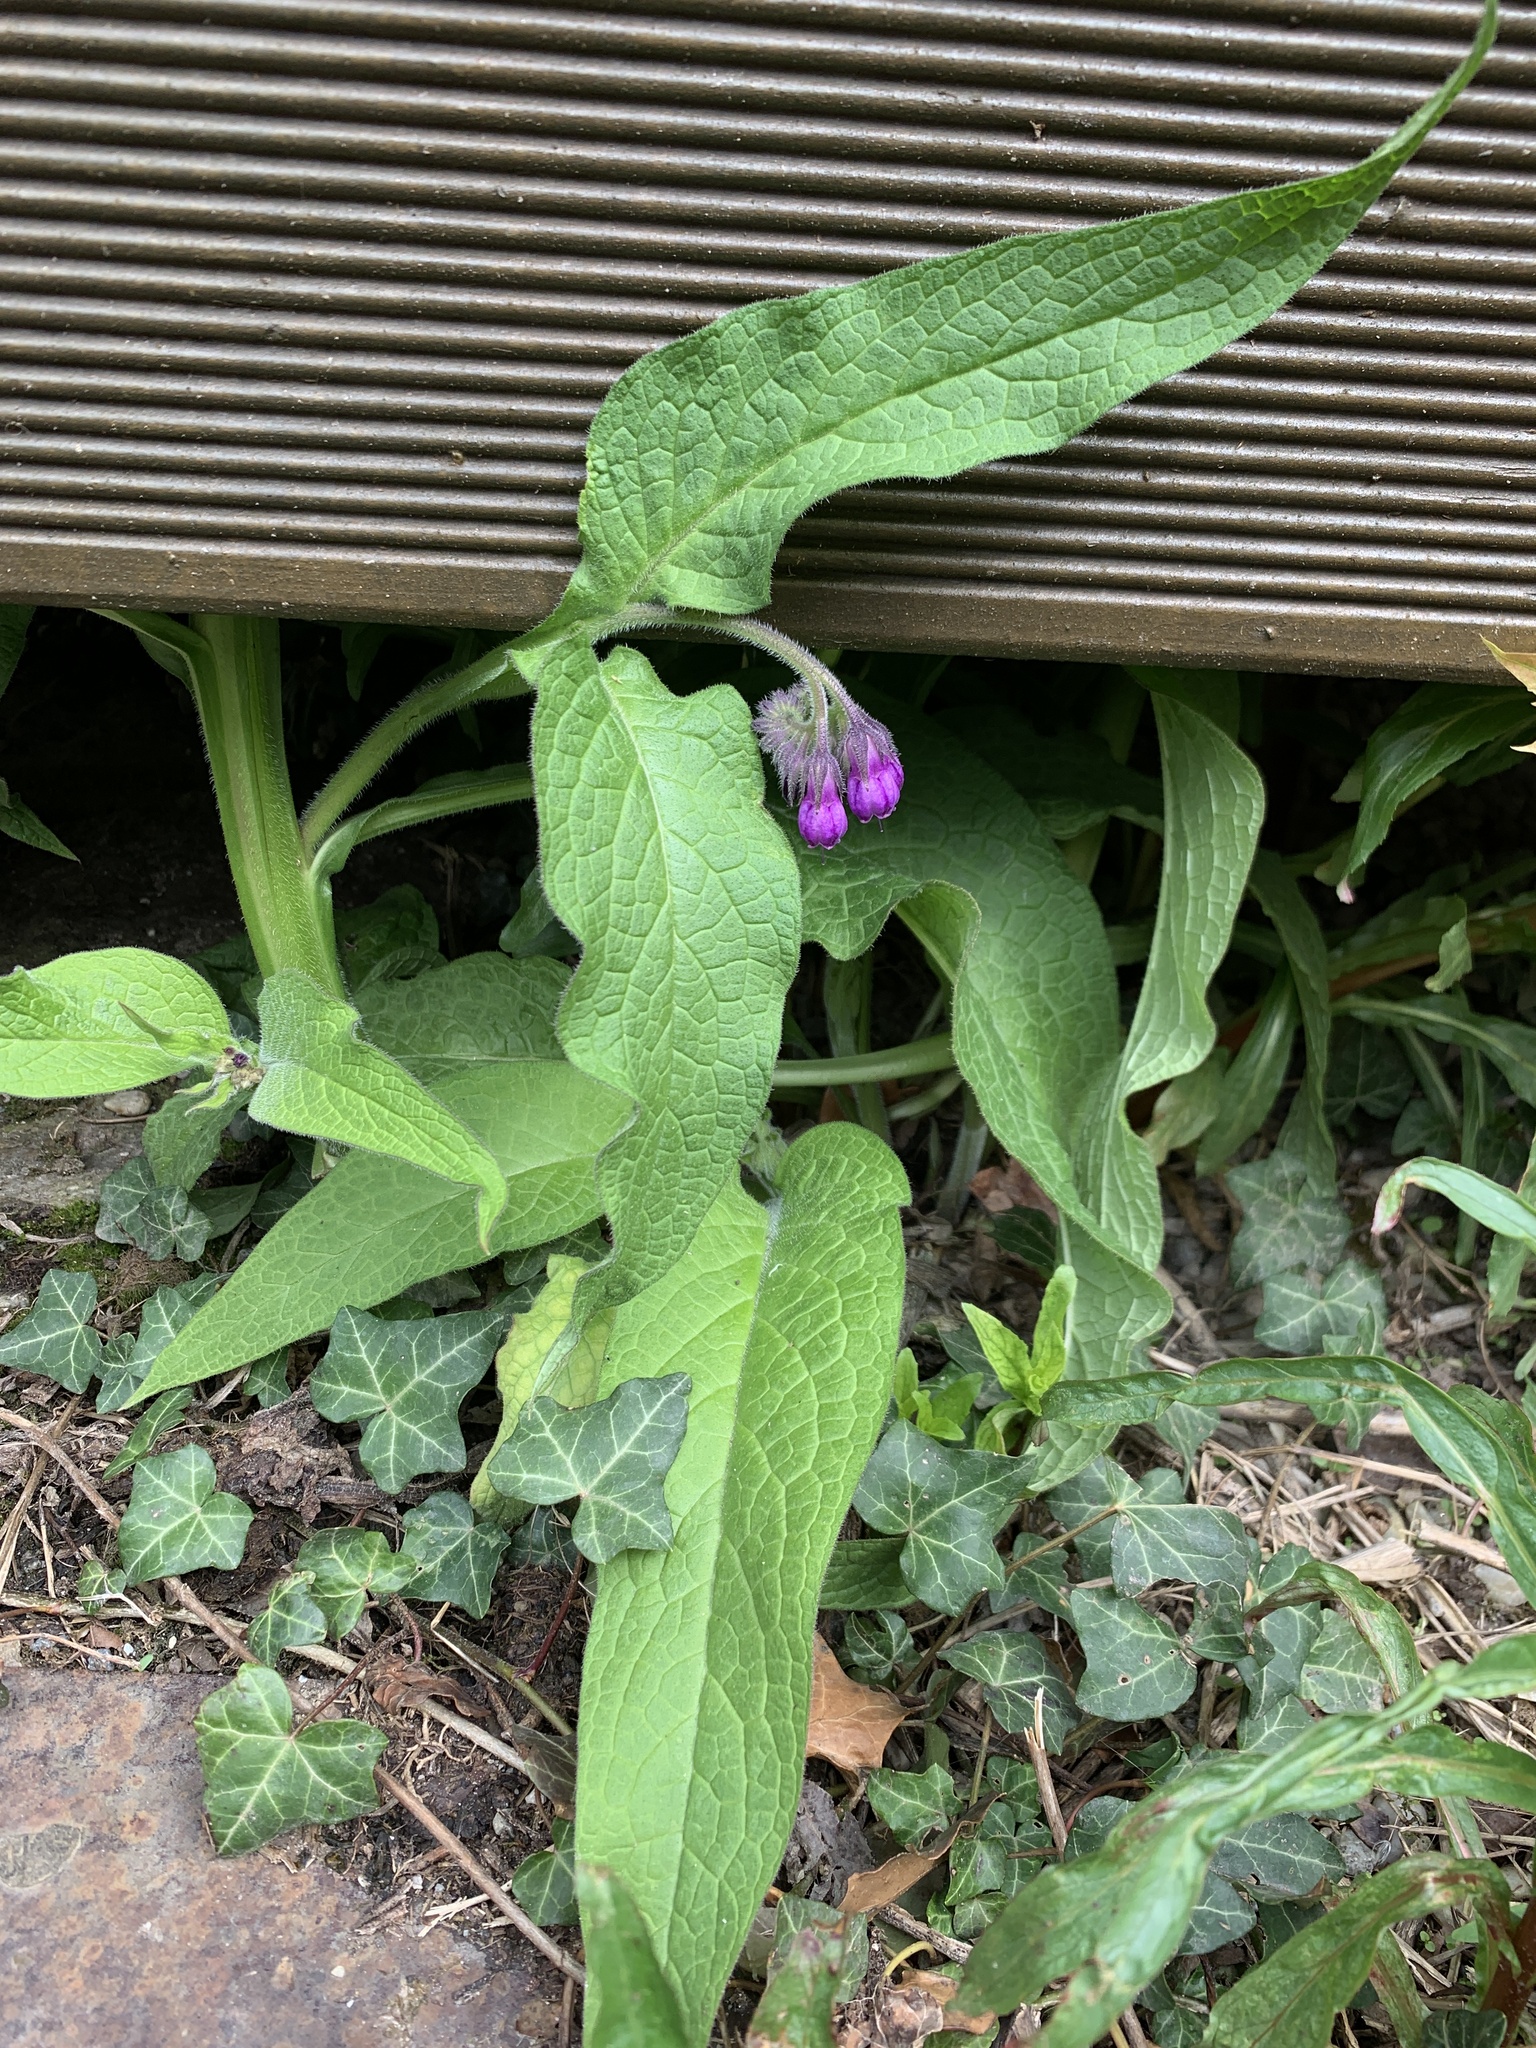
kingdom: Plantae
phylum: Tracheophyta
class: Magnoliopsida
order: Boraginales
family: Boraginaceae
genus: Symphytum
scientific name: Symphytum officinale
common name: Common comfrey
